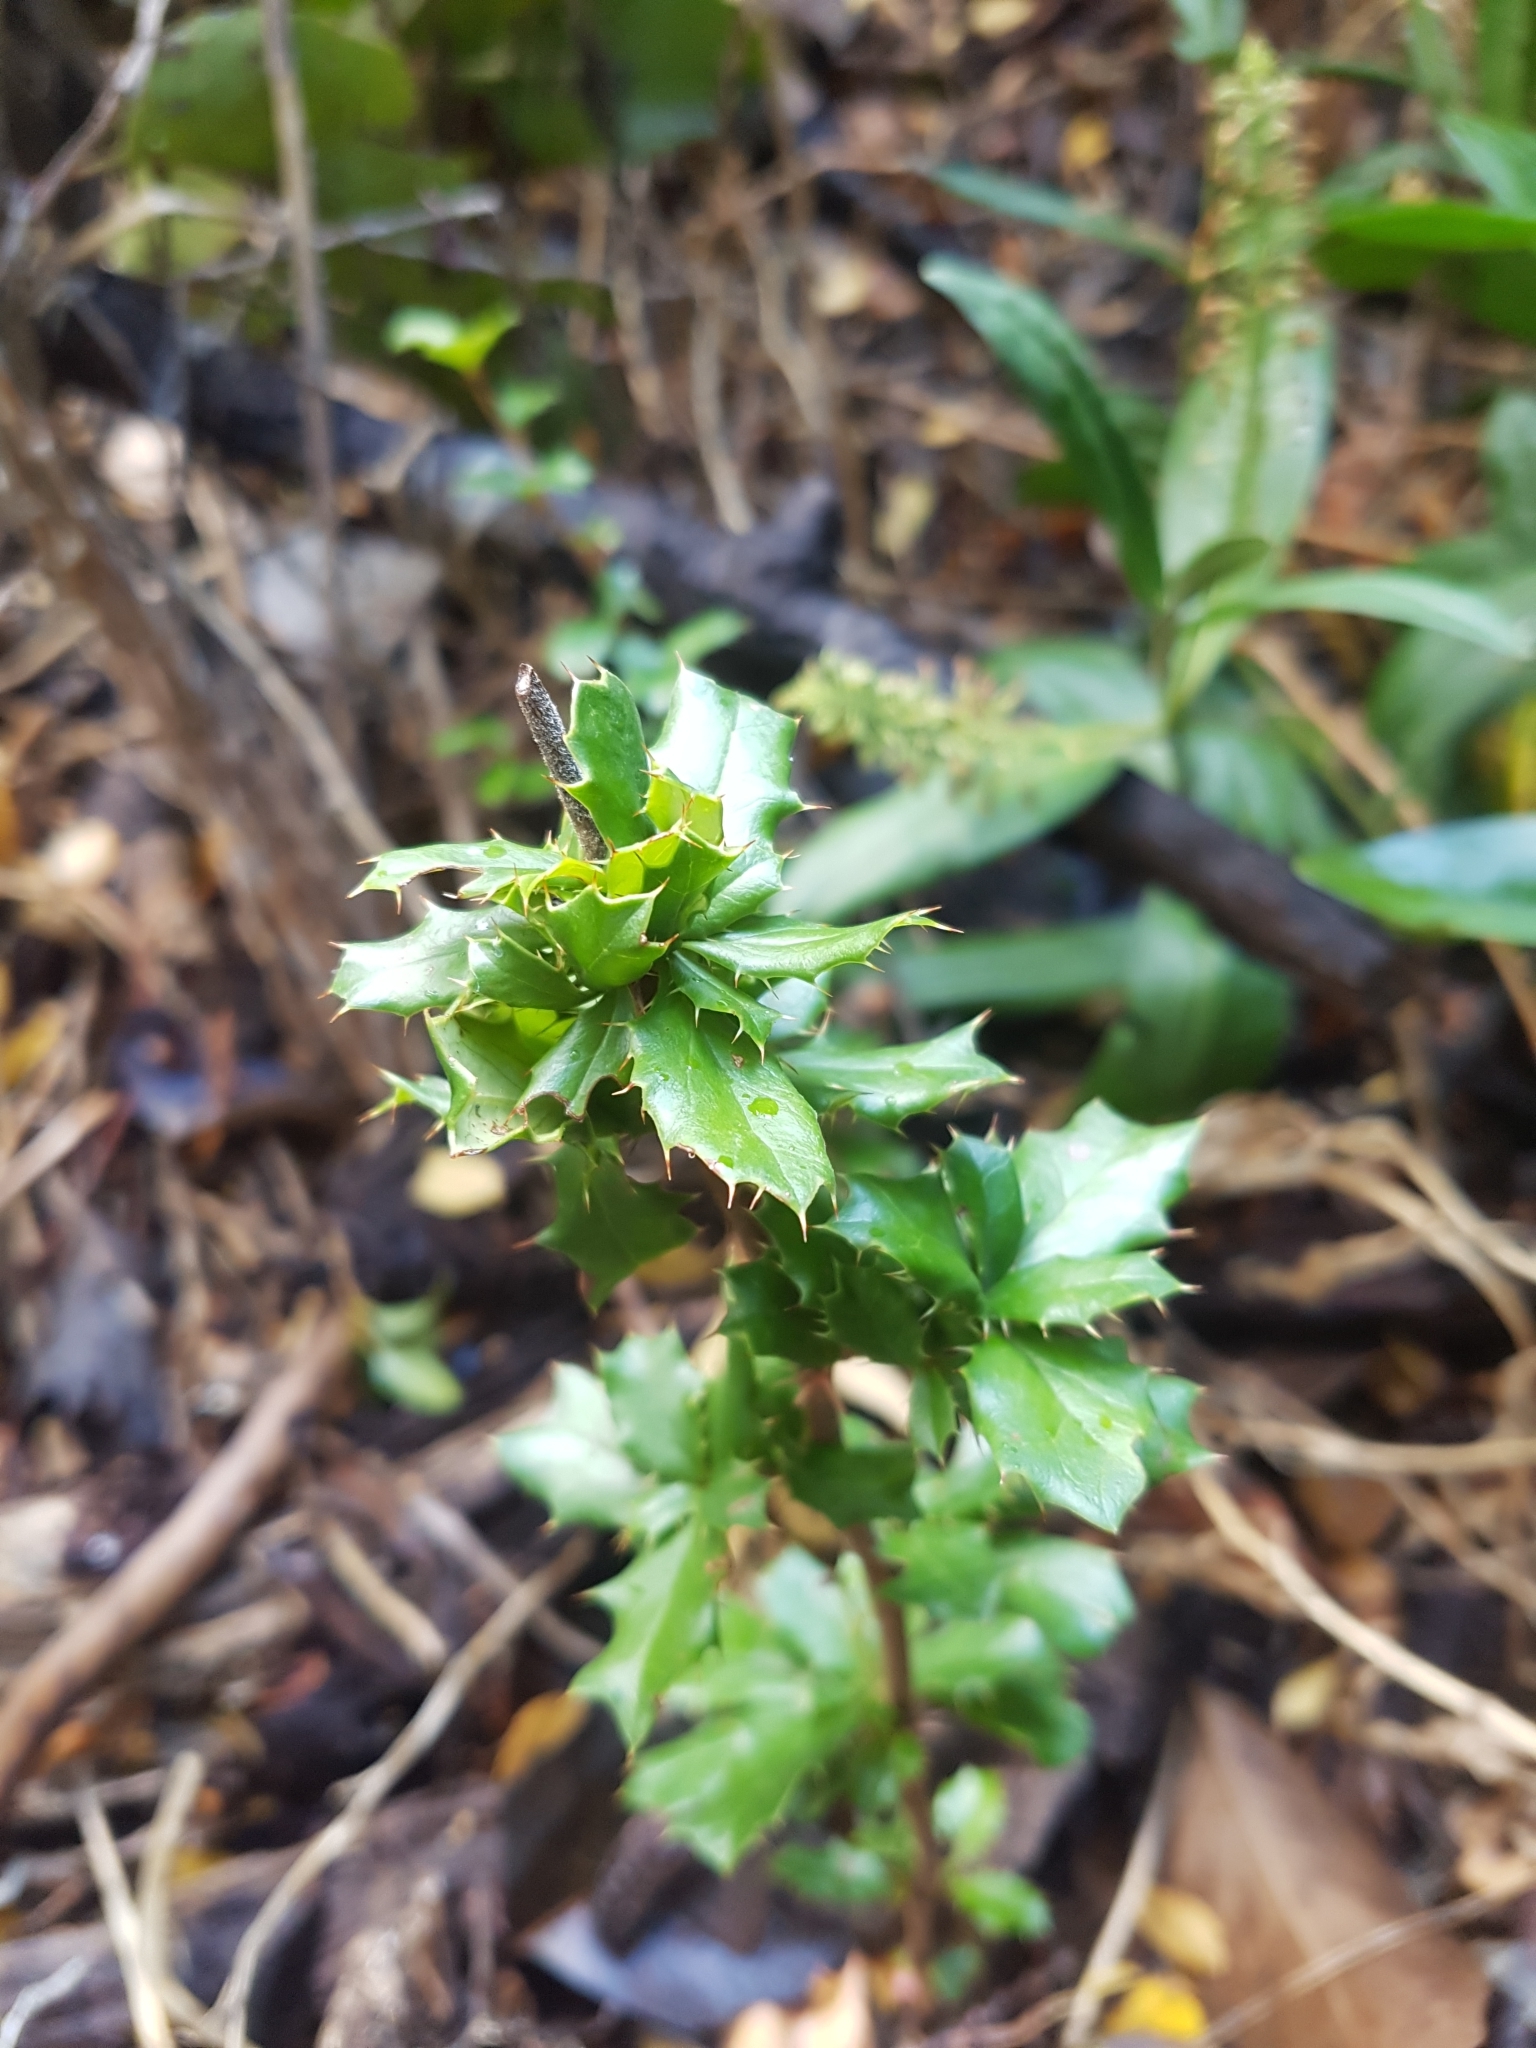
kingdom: Plantae
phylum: Tracheophyta
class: Magnoliopsida
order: Ranunculales
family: Berberidaceae
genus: Berberis
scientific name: Berberis darwinii
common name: Darwin's barberry
